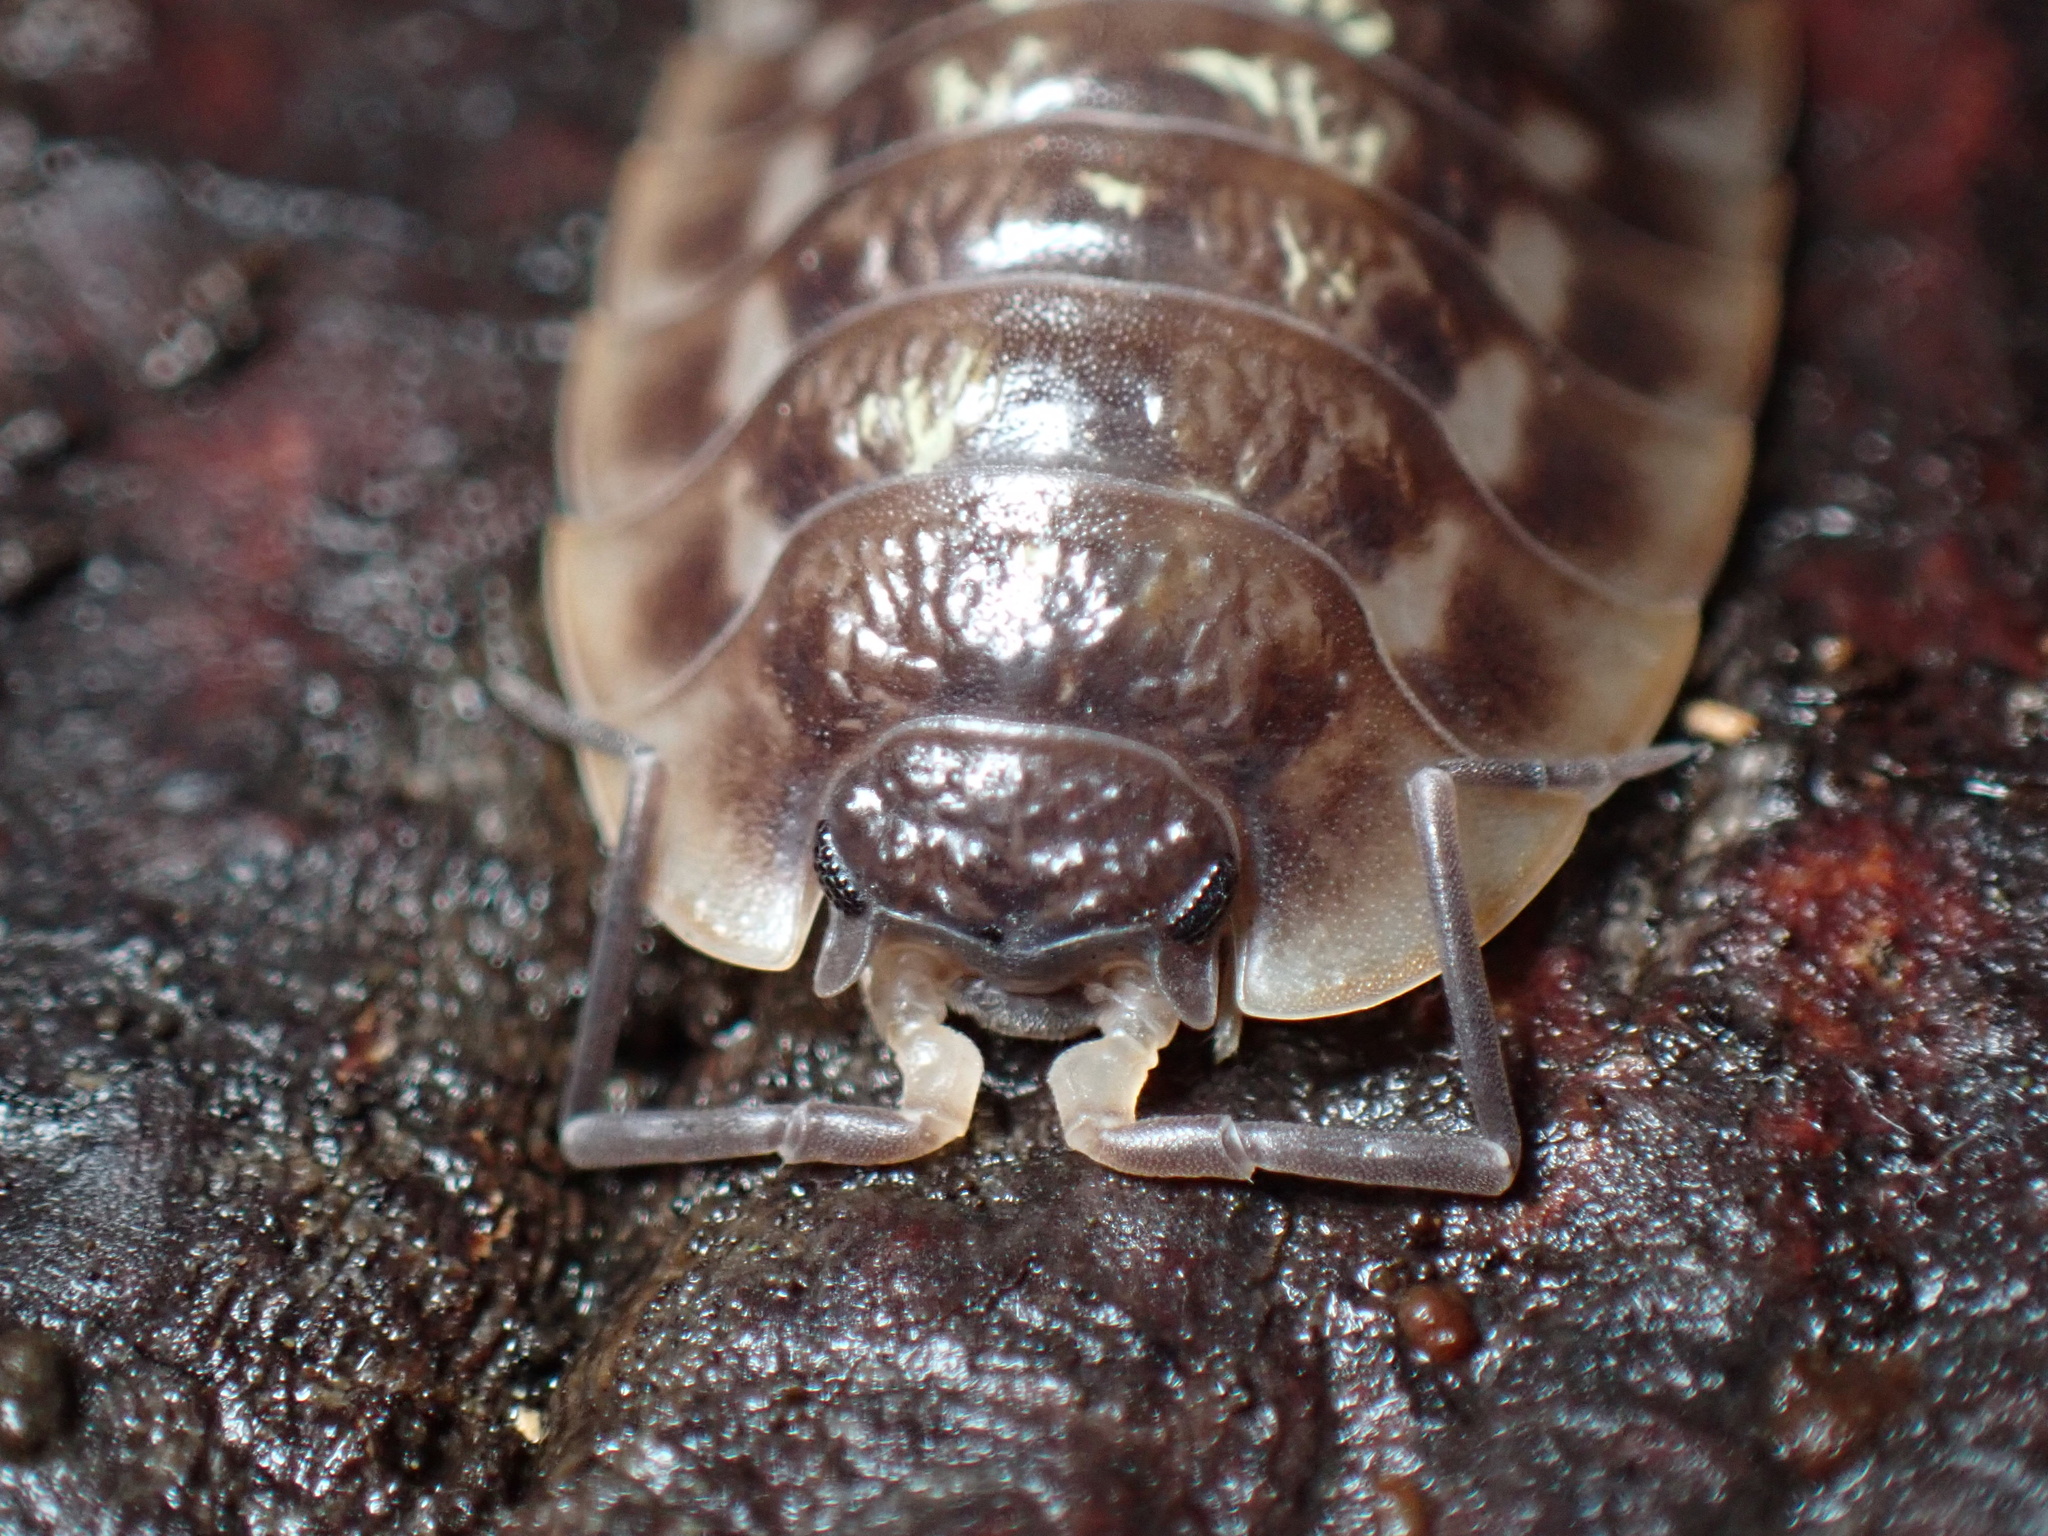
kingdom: Animalia
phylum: Arthropoda
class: Malacostraca
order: Isopoda
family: Oniscidae
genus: Oniscus
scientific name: Oniscus asellus
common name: Common shiny woodlouse
